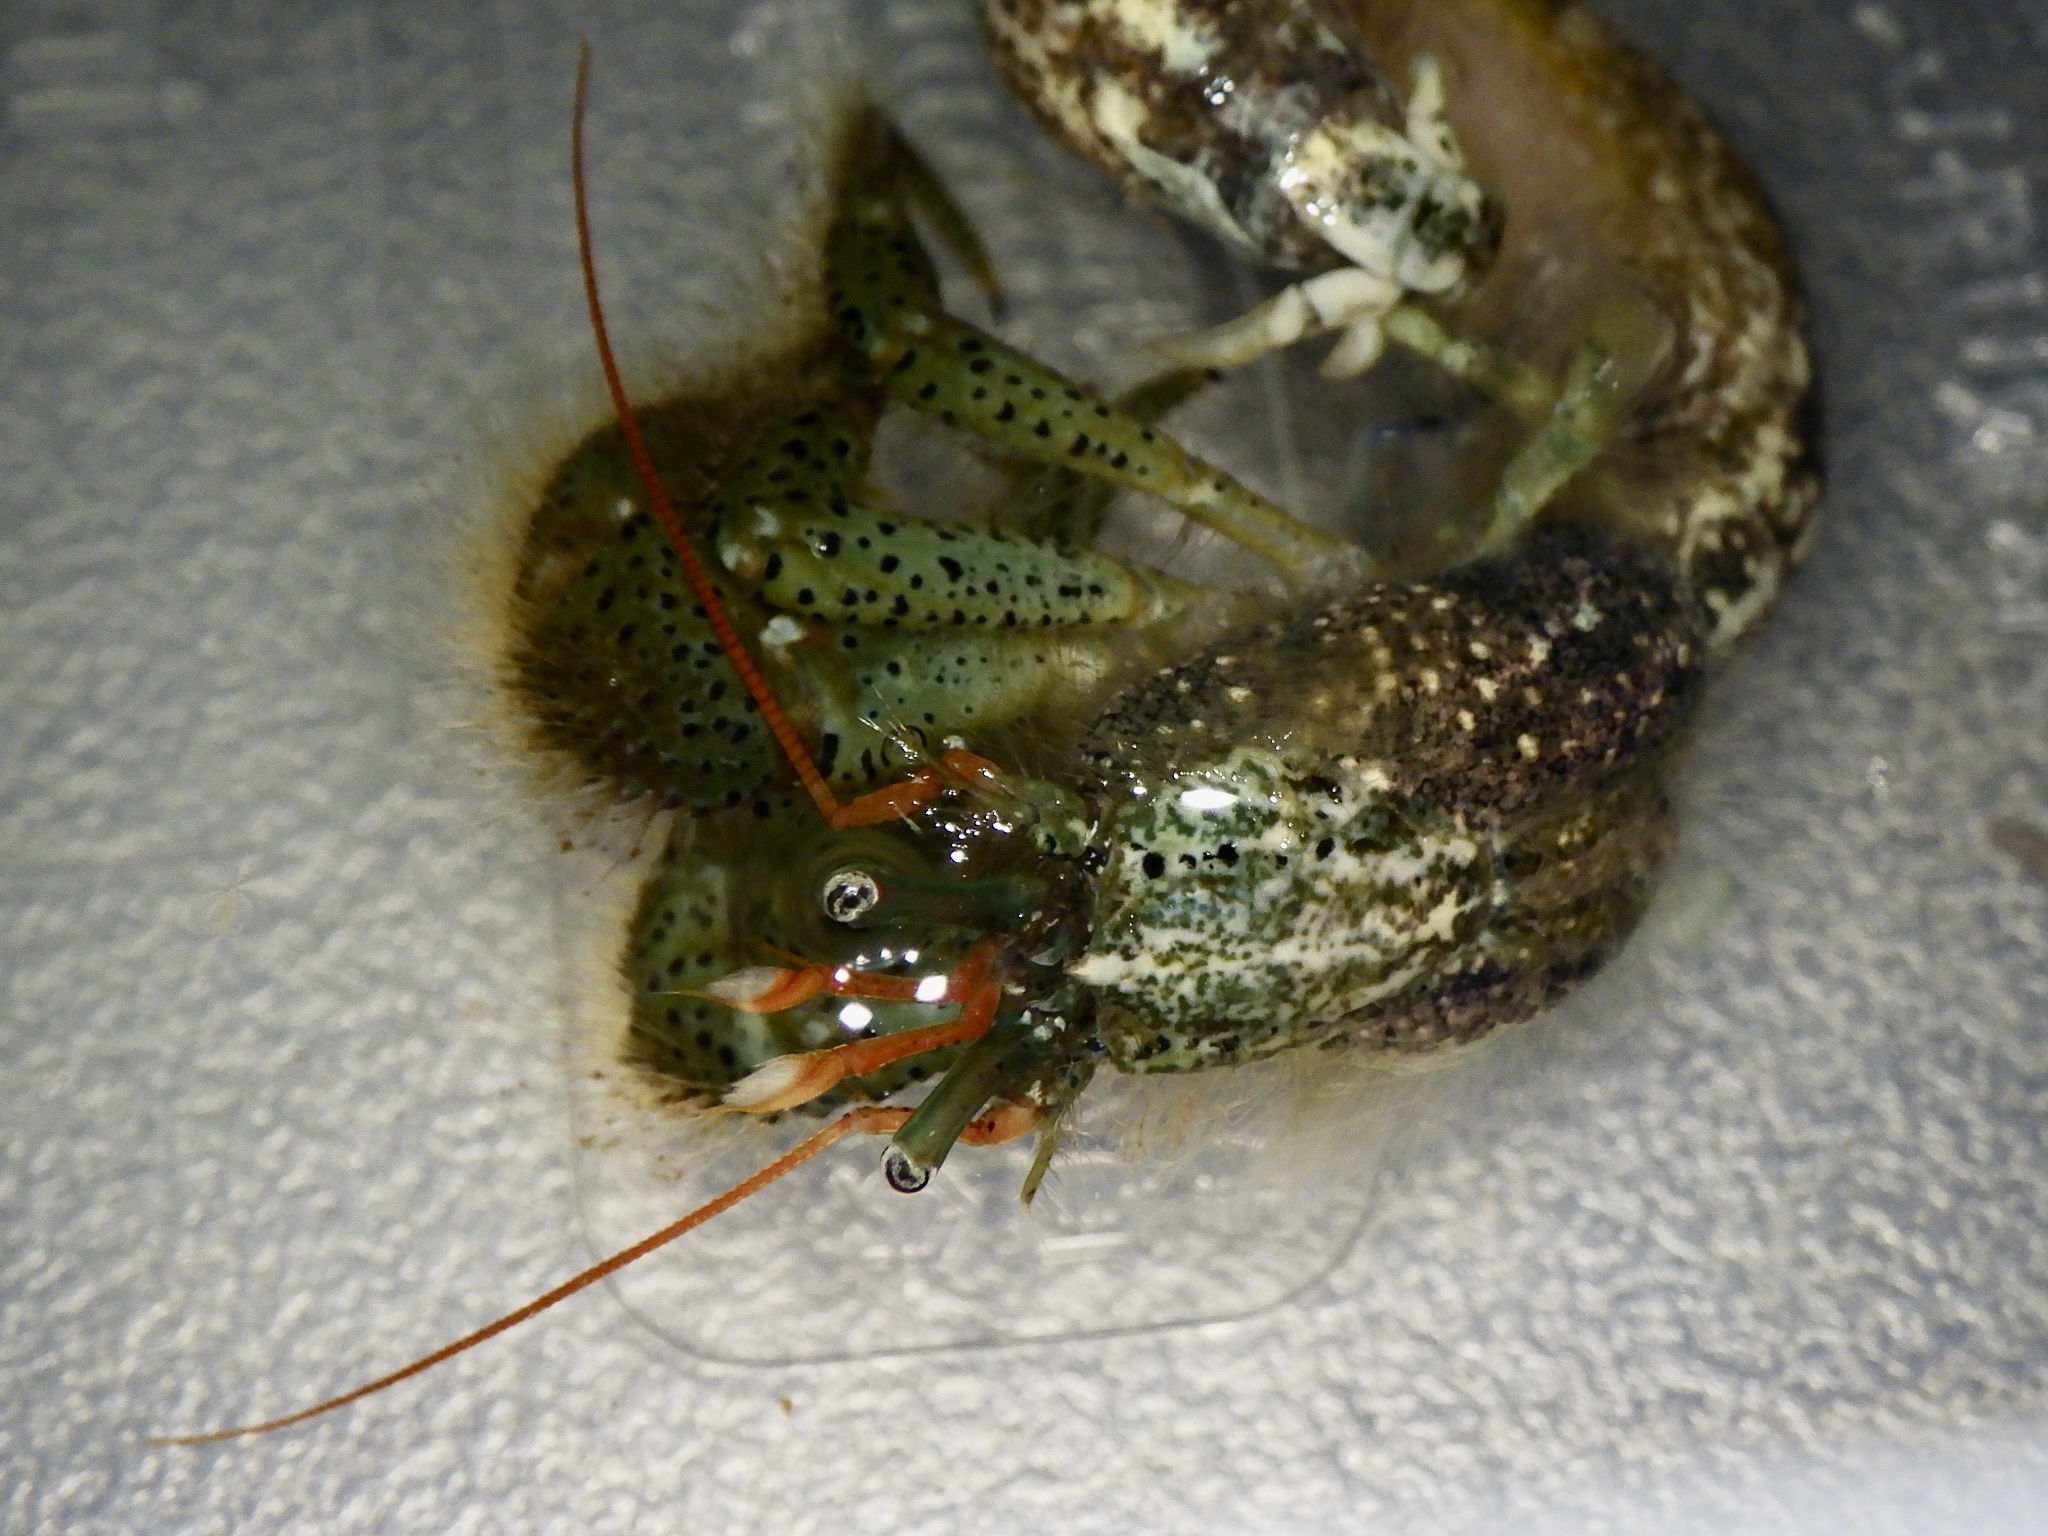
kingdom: Animalia
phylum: Arthropoda
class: Malacostraca
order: Decapoda
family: Paguridae
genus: Pagurus
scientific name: Pagurus lanuginosus
